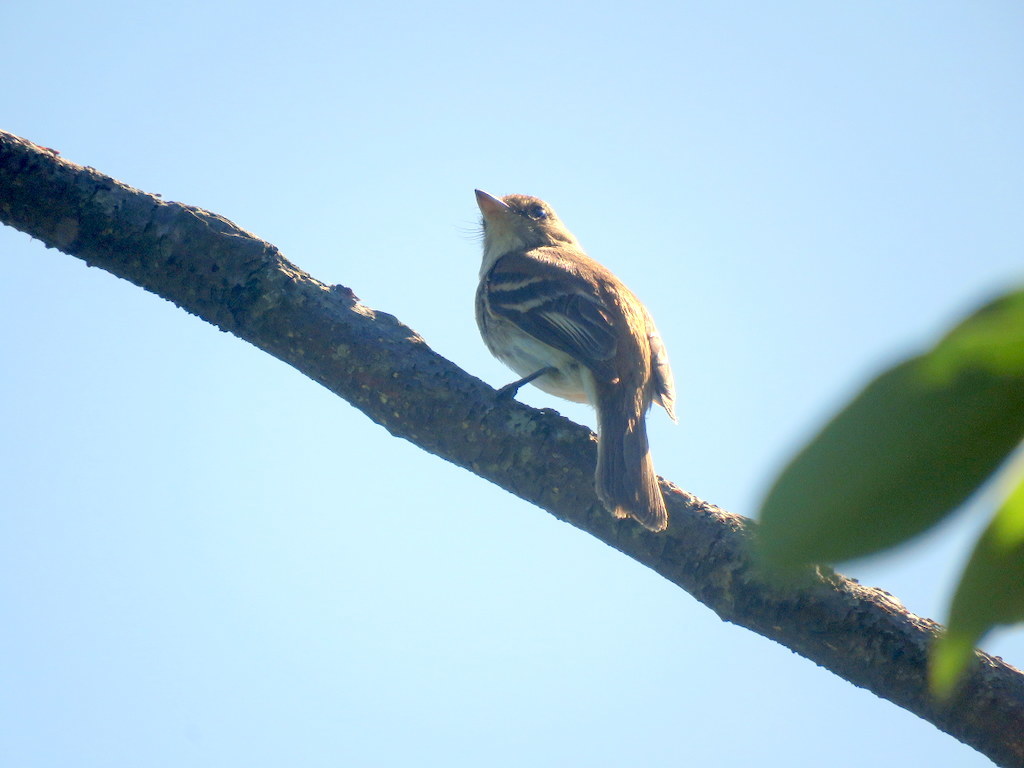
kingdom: Animalia
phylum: Chordata
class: Aves
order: Passeriformes
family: Tyrannidae
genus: Myiophobus
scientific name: Myiophobus fasciatus
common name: Bran-colored flycatcher
